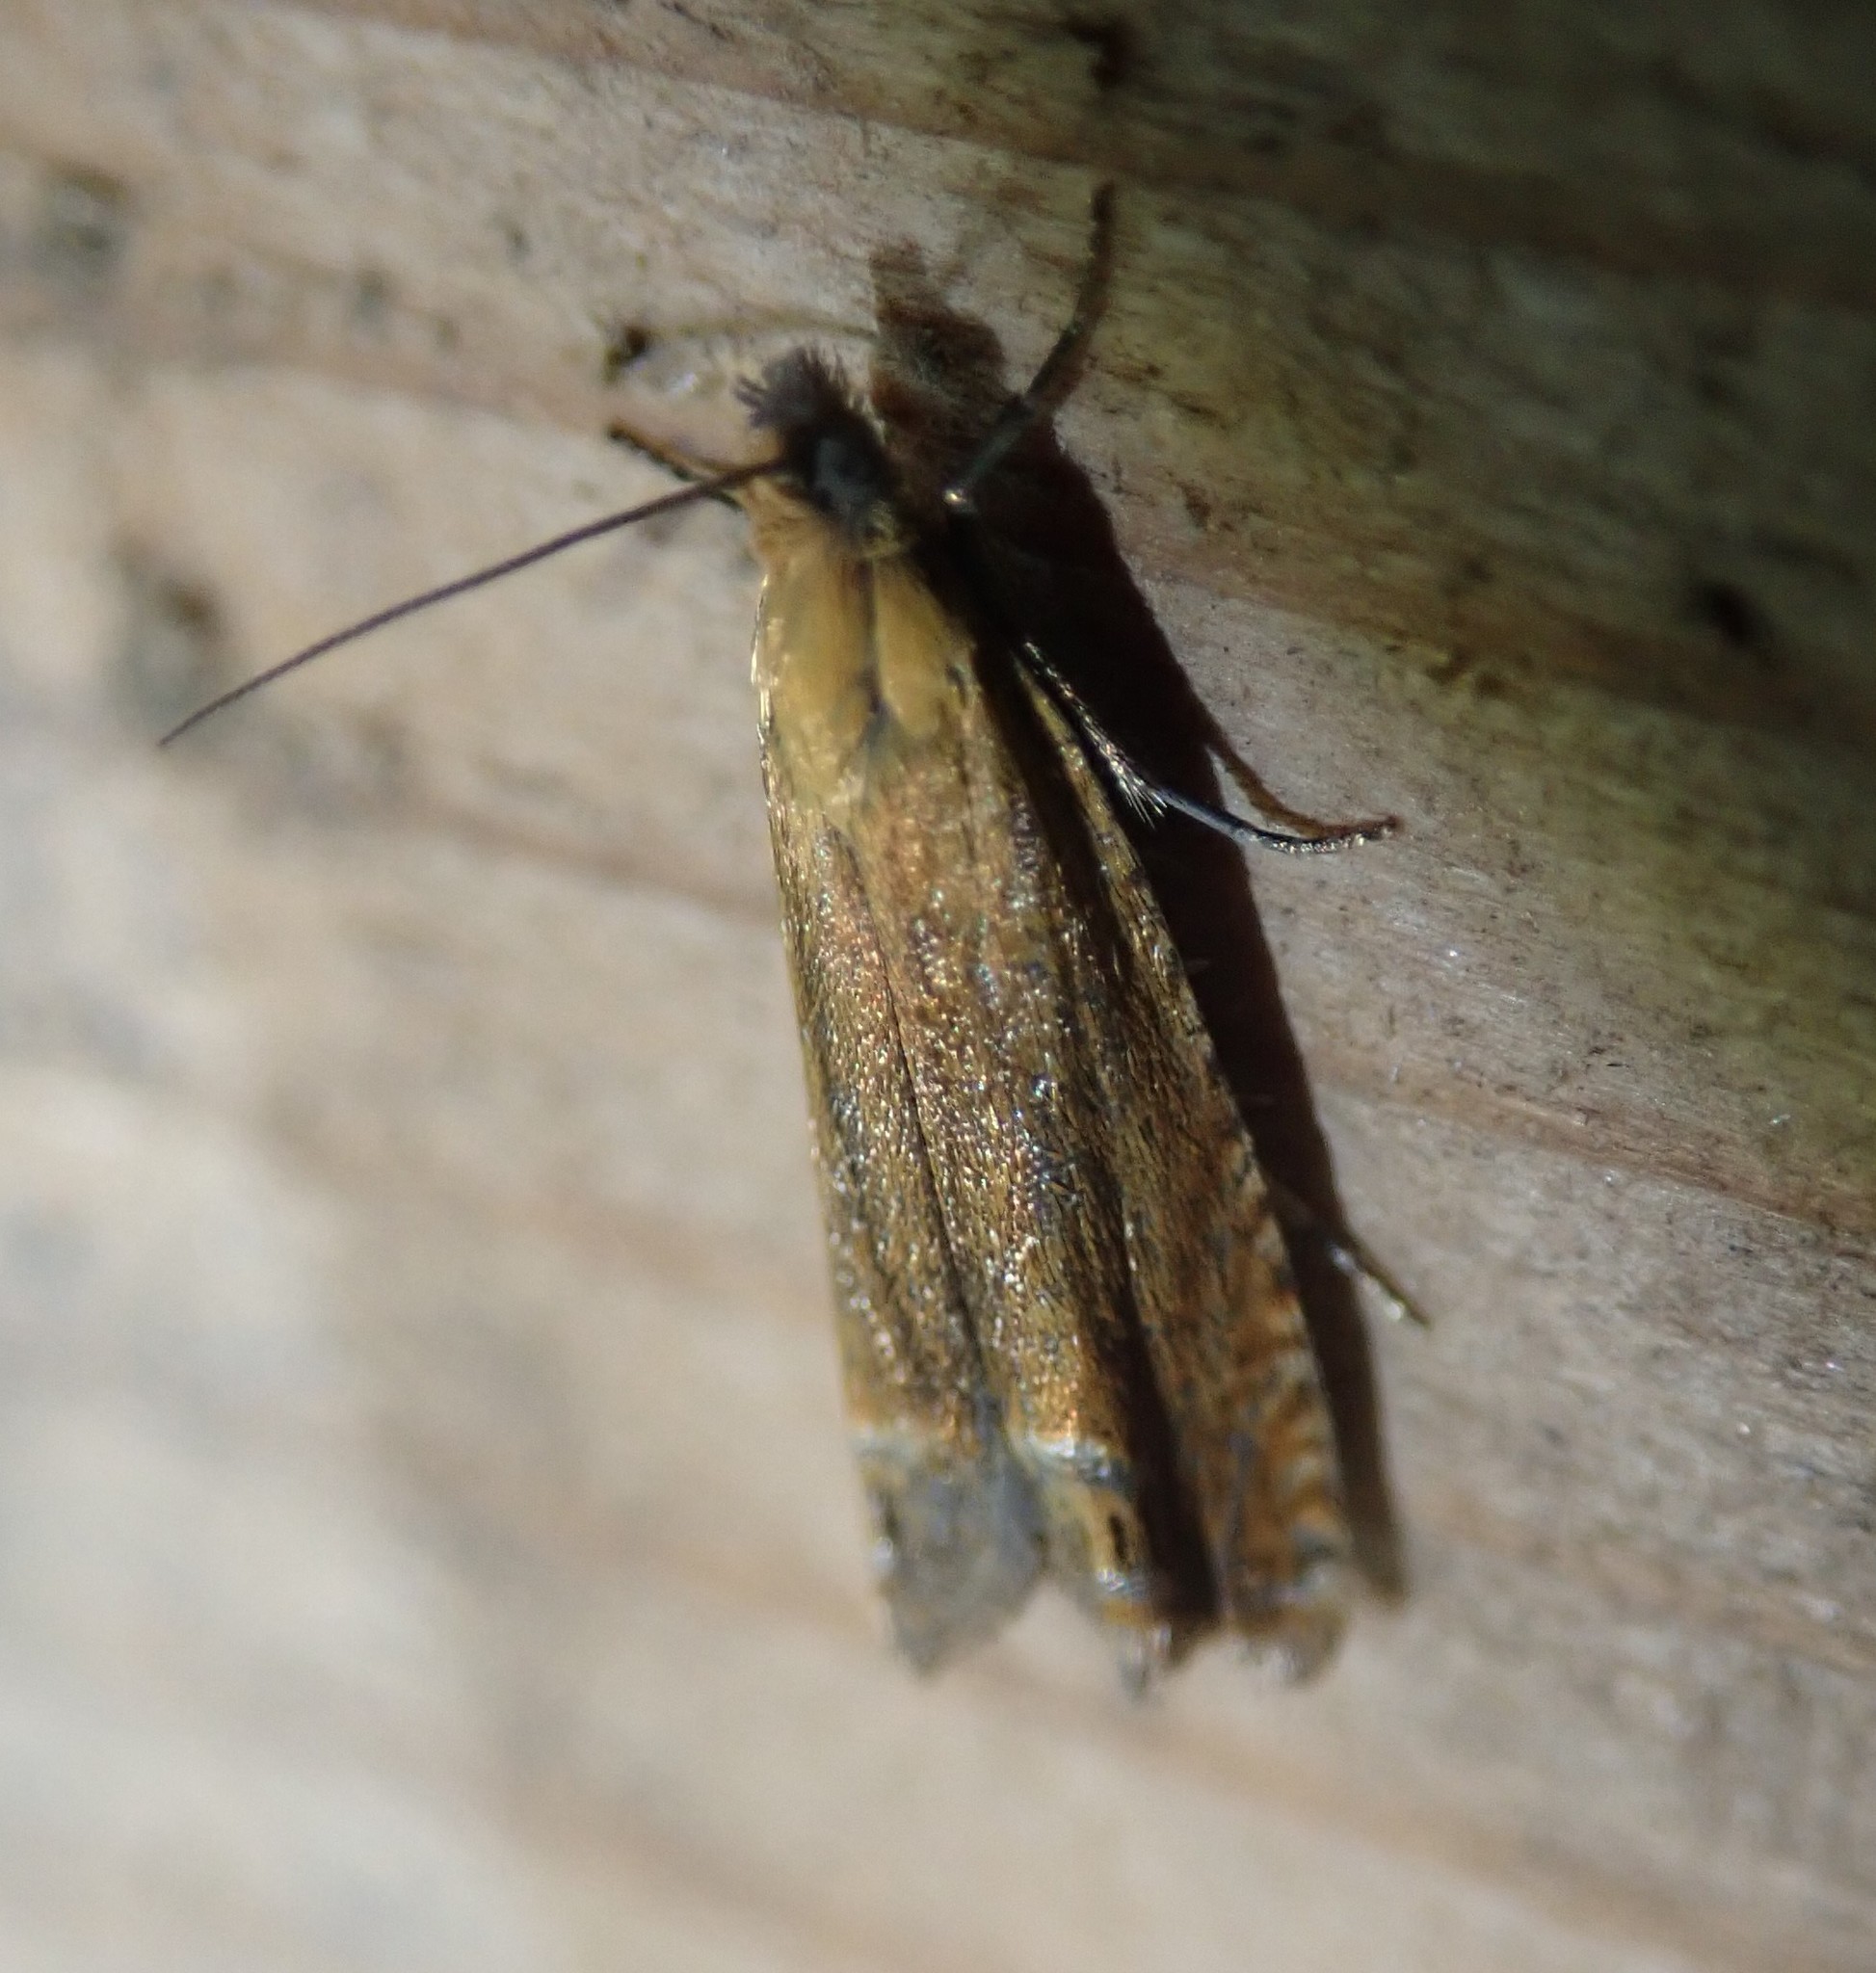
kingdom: Animalia
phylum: Arthropoda
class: Insecta
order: Lepidoptera
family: Tortricidae
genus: Lathronympha
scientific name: Lathronympha strigana
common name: Red piercer
